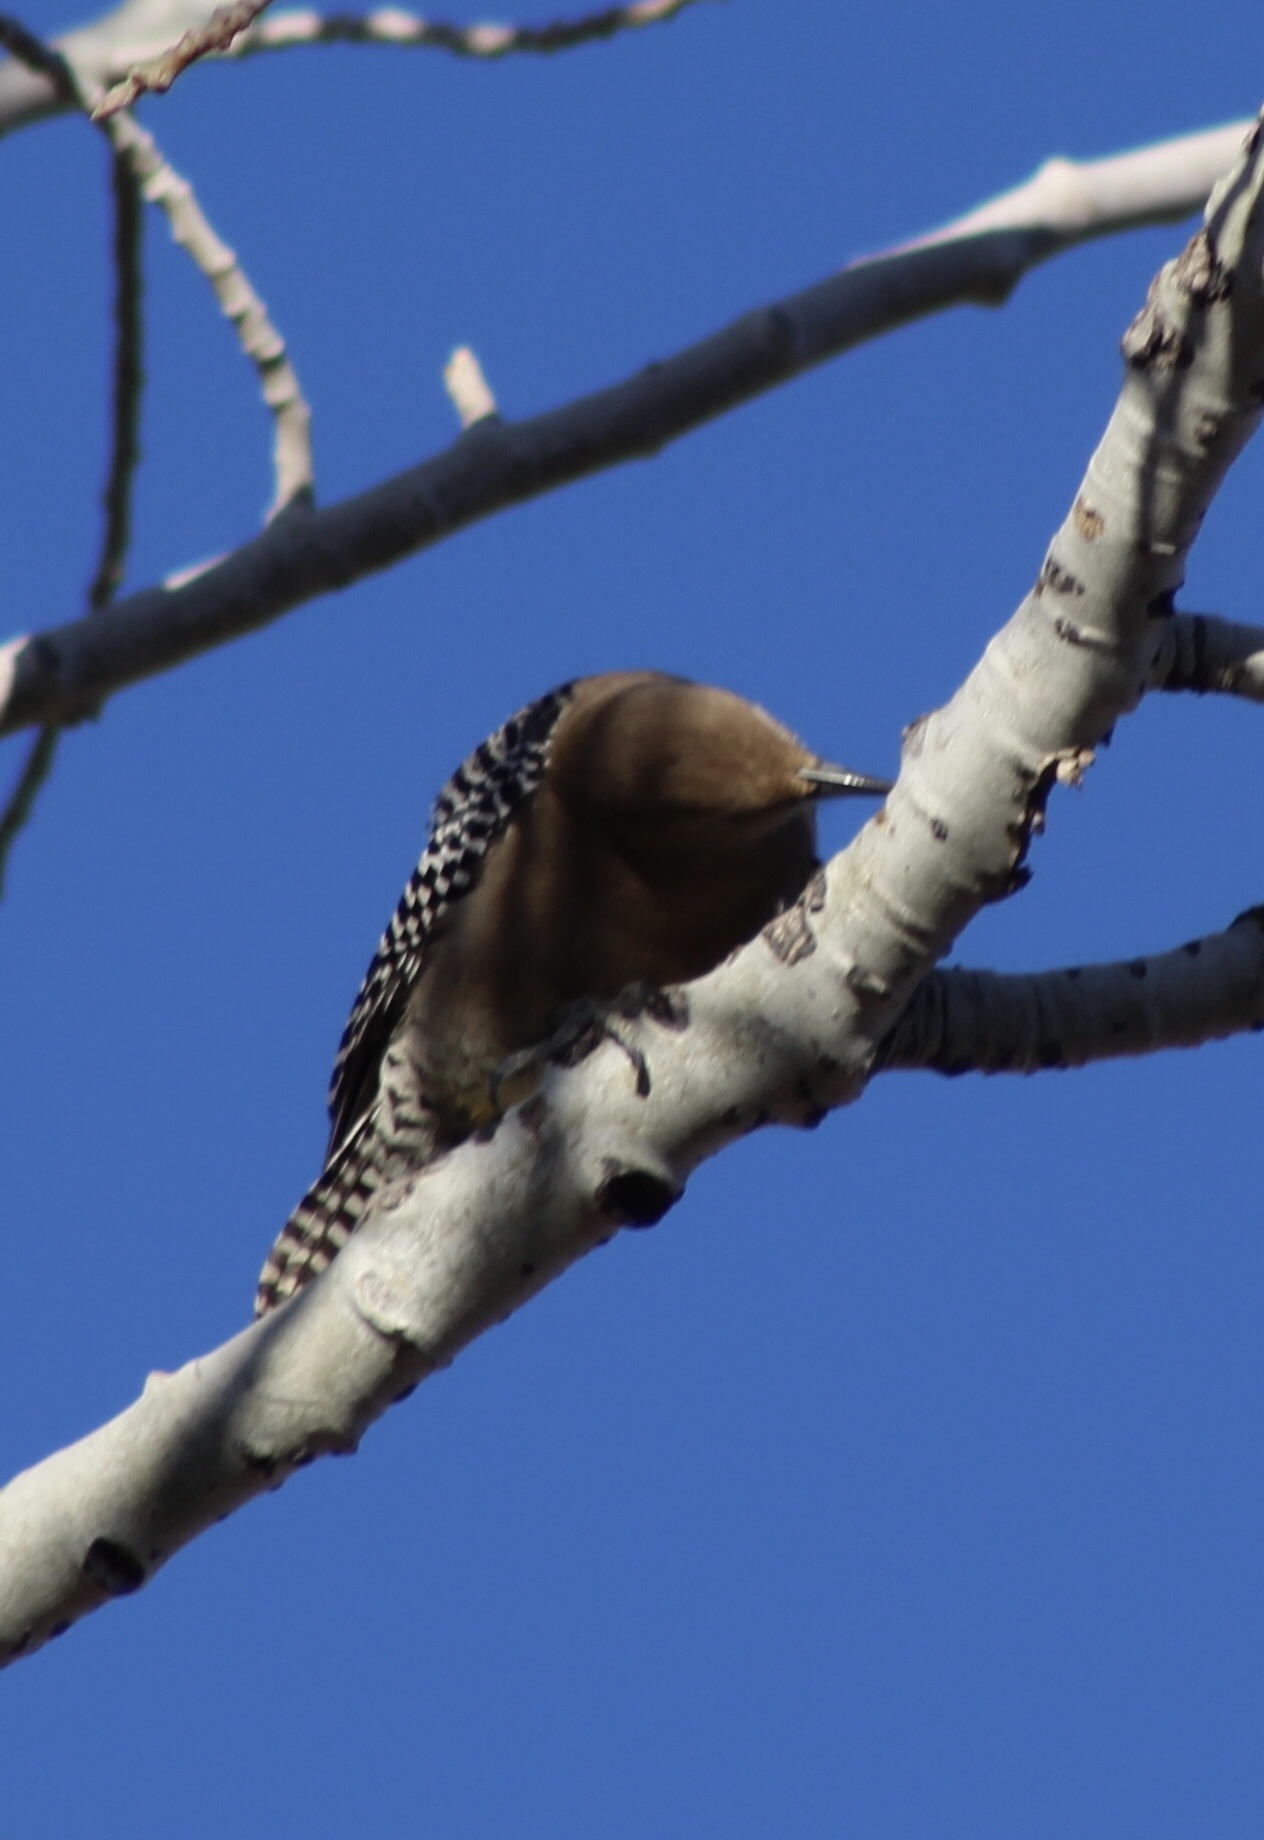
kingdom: Animalia
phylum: Chordata
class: Aves
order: Piciformes
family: Picidae
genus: Melanerpes
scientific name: Melanerpes uropygialis
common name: Gila woodpecker
